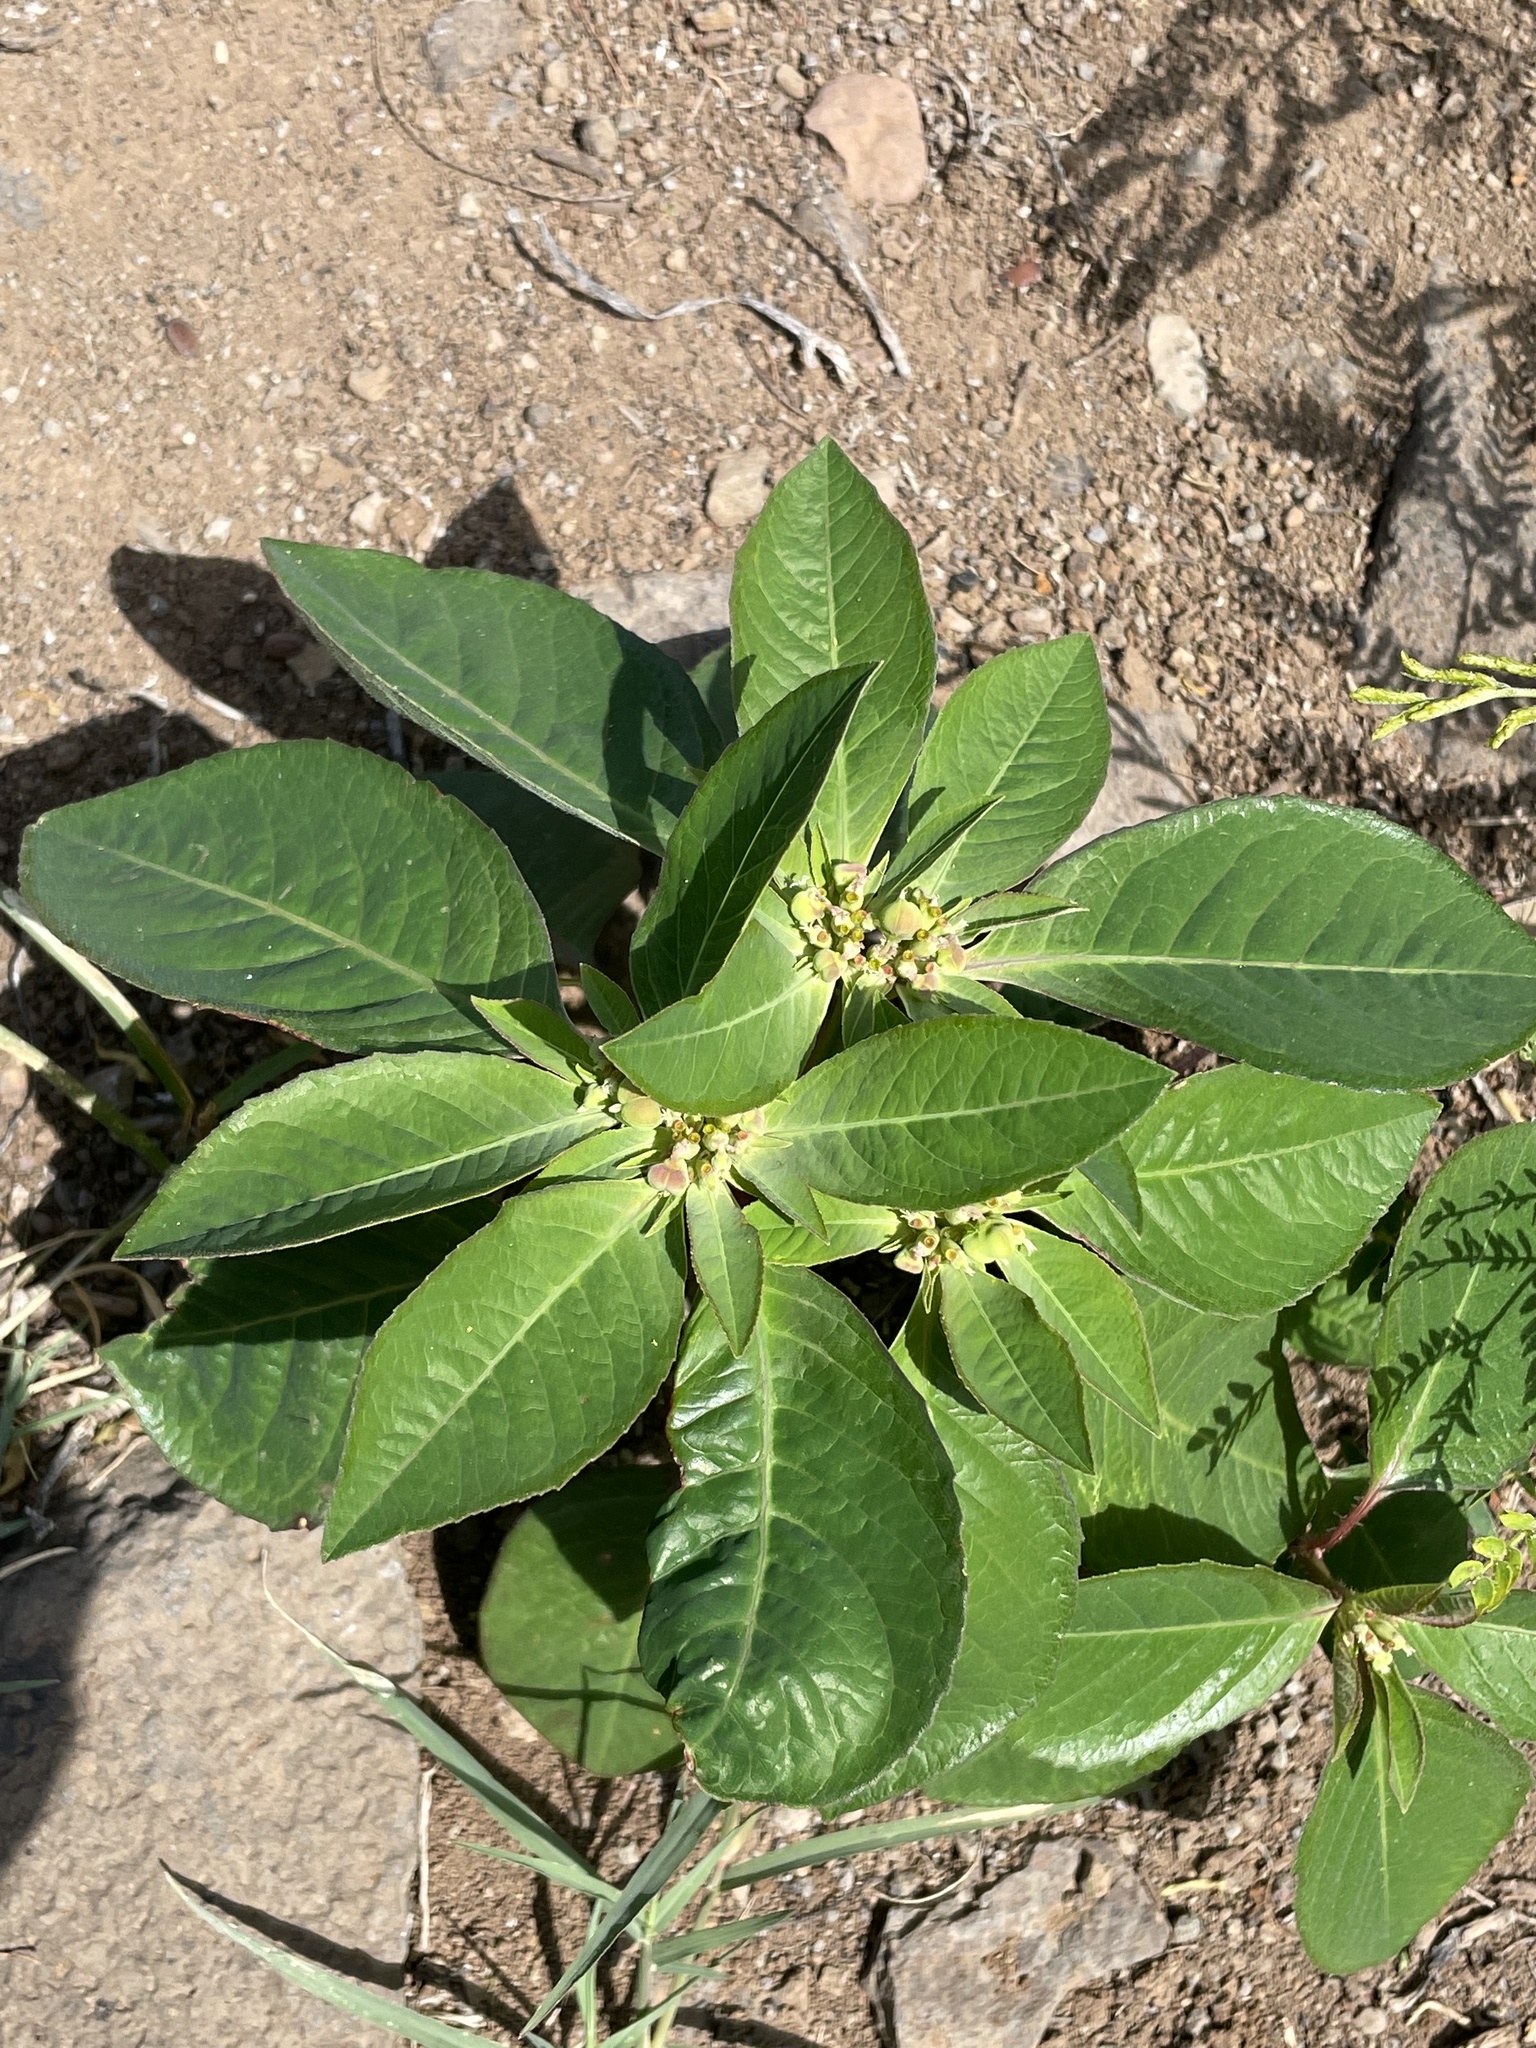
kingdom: Plantae
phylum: Tracheophyta
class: Magnoliopsida
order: Malpighiales
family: Euphorbiaceae
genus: Euphorbia
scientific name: Euphorbia heterophylla
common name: Mexican fireplant
